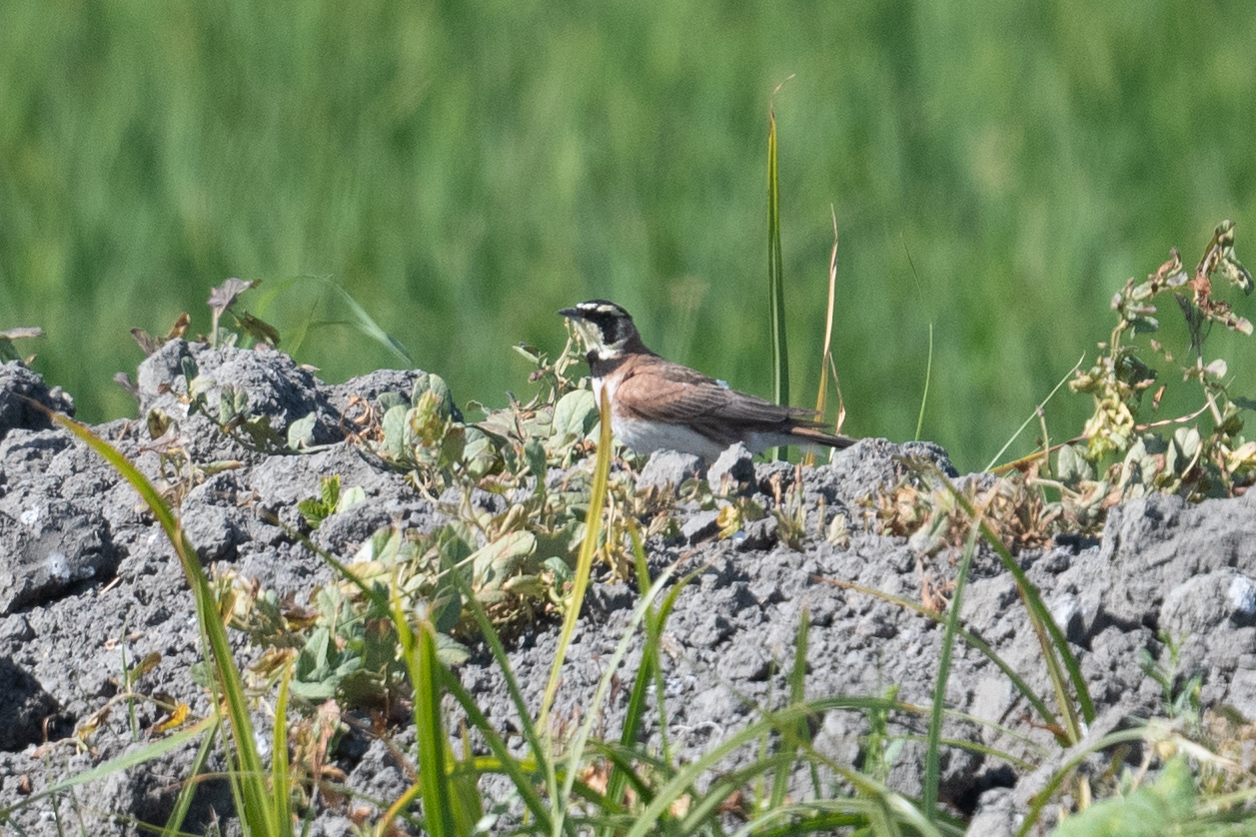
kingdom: Animalia
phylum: Chordata
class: Aves
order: Passeriformes
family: Alaudidae
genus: Eremophila
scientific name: Eremophila alpestris
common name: Horned lark
